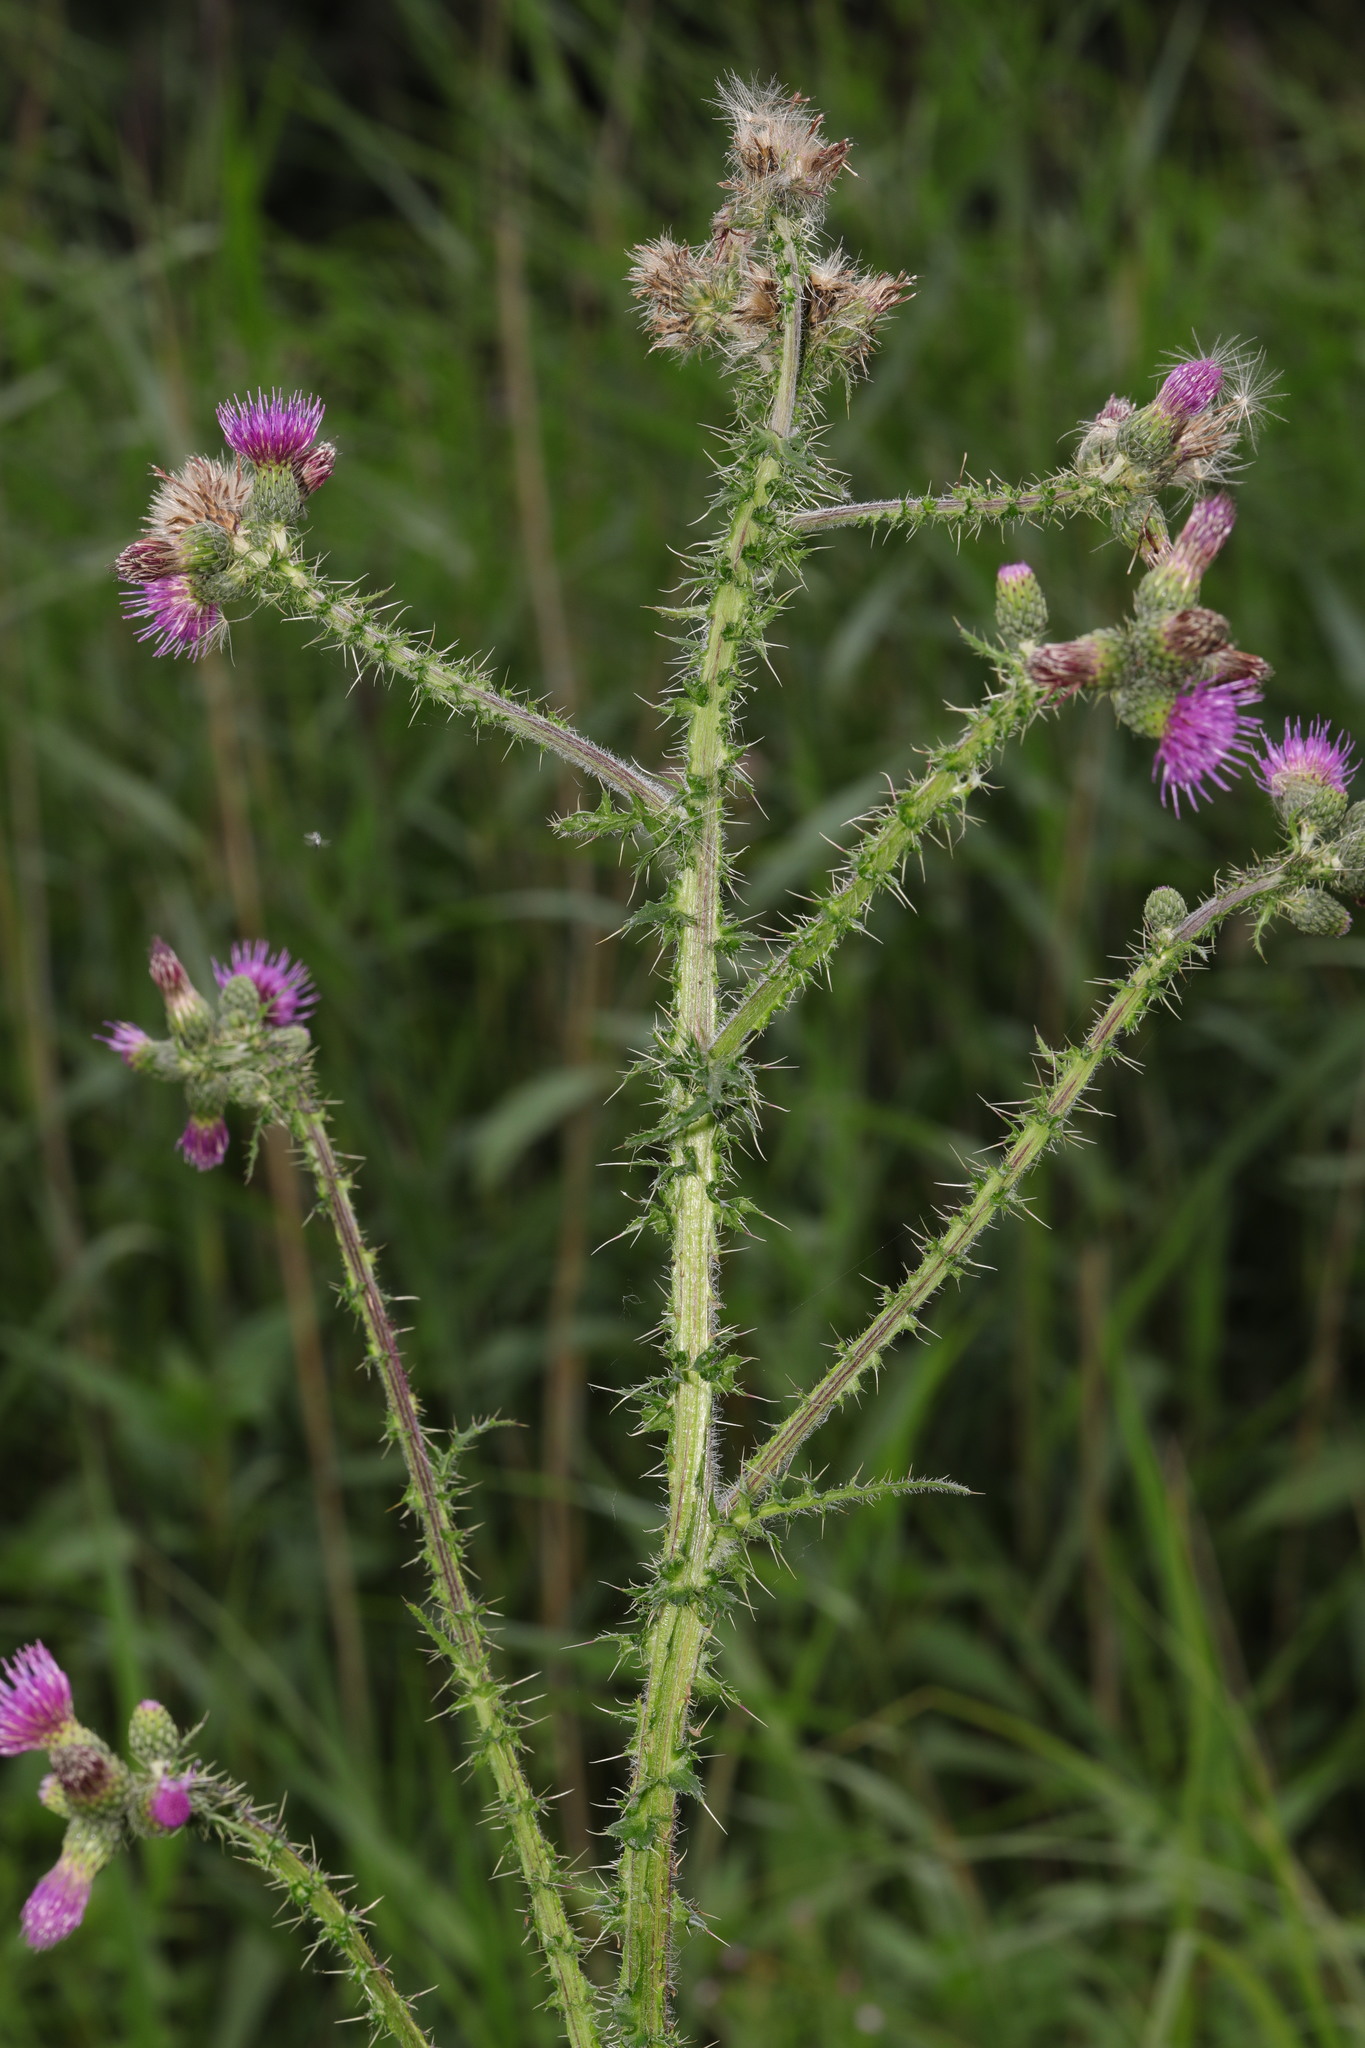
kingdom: Plantae
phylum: Tracheophyta
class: Magnoliopsida
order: Asterales
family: Asteraceae
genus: Cirsium
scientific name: Cirsium palustre
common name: Marsh thistle
